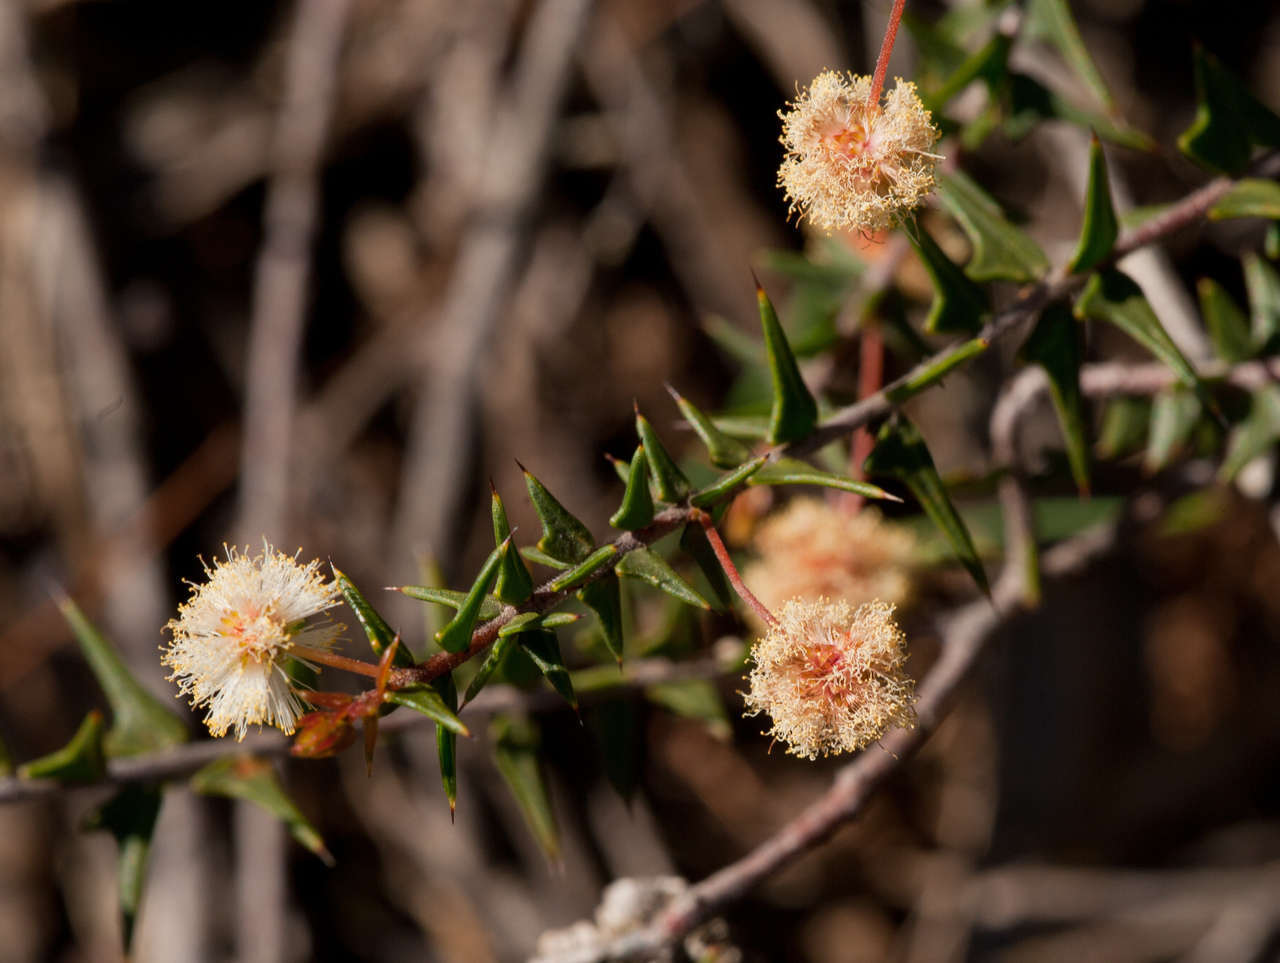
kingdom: Plantae
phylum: Tracheophyta
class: Magnoliopsida
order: Fabales
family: Fabaceae
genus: Acacia
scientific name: Acacia gunnii
